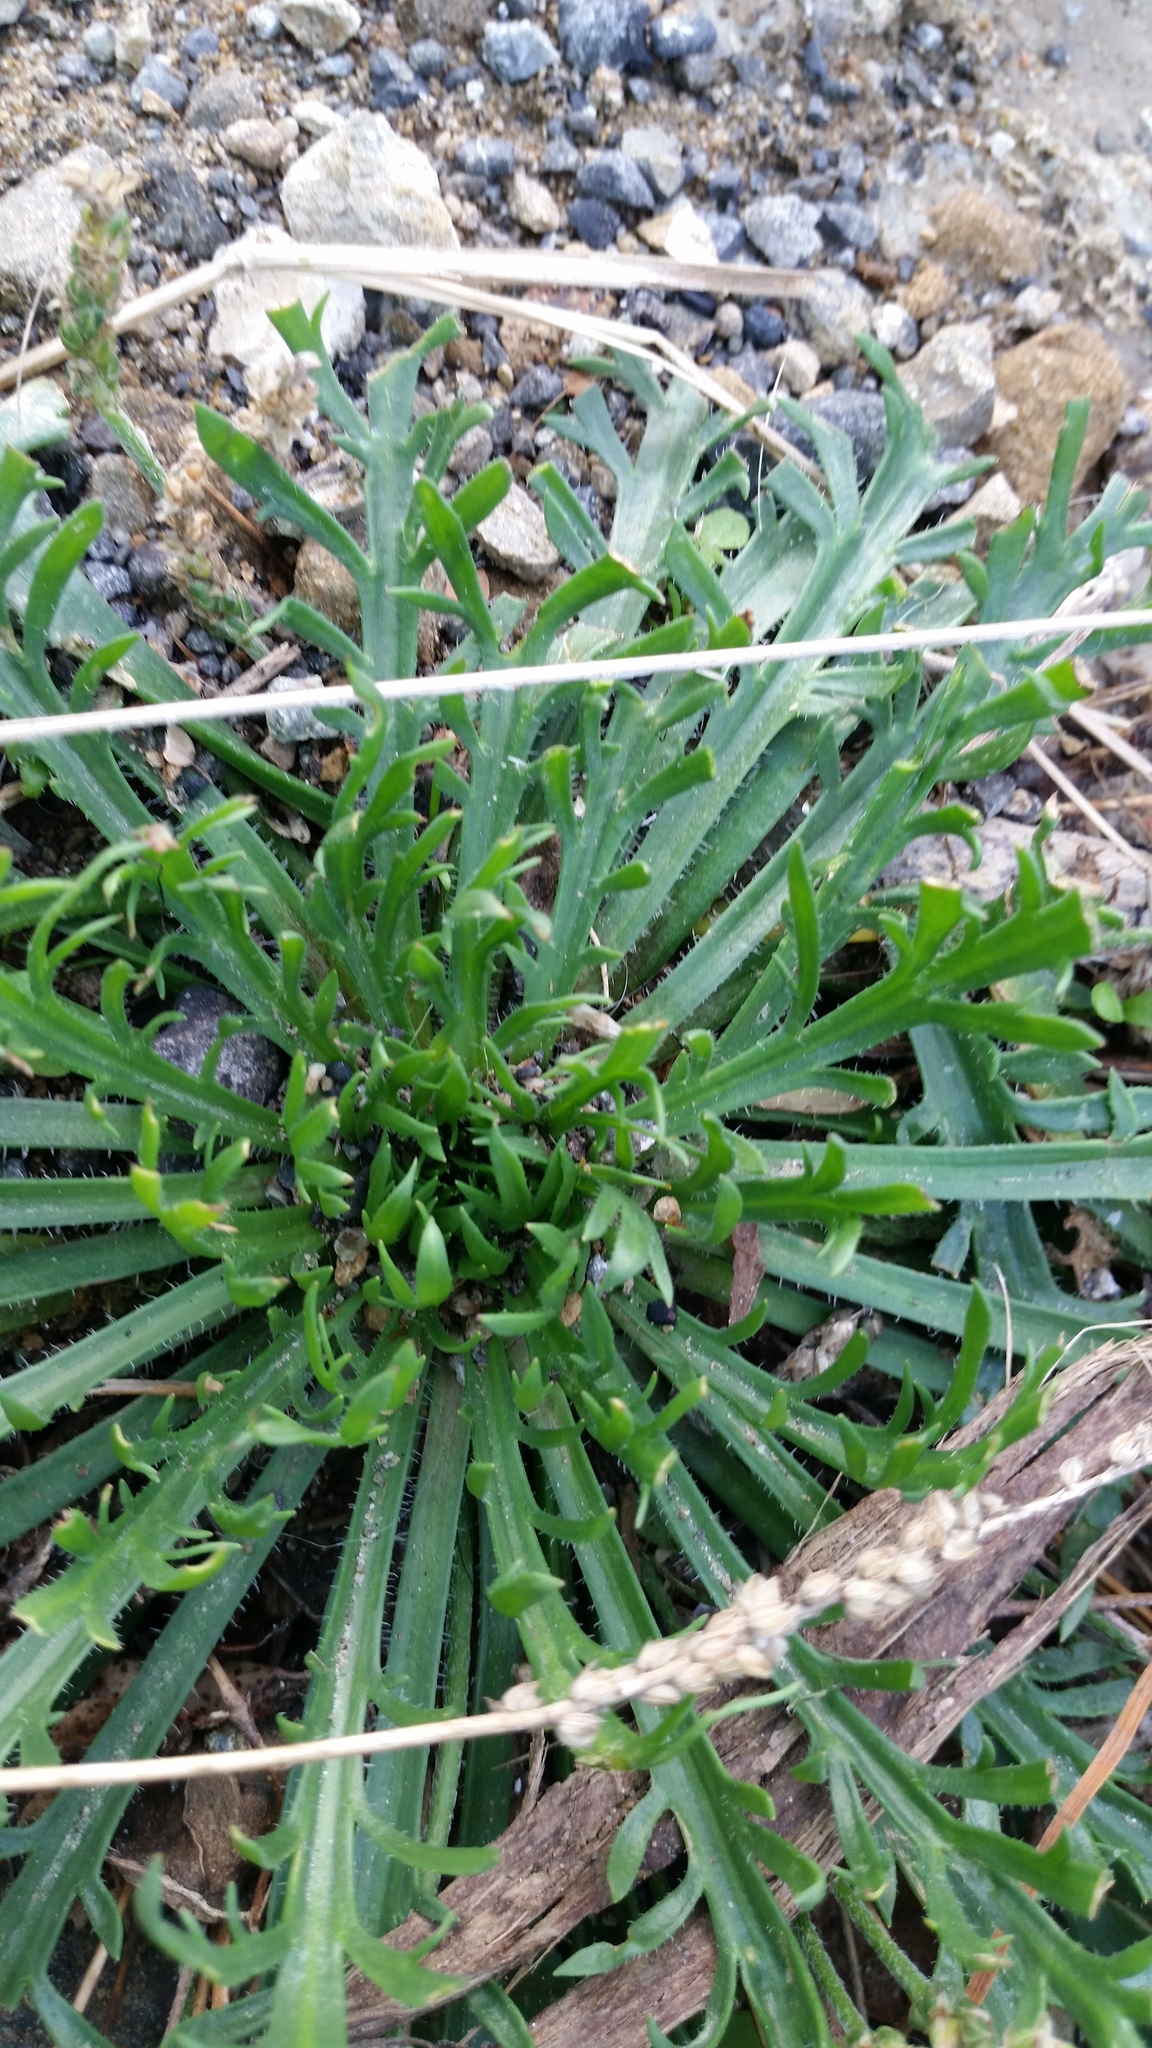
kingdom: Plantae
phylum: Tracheophyta
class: Magnoliopsida
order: Lamiales
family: Plantaginaceae
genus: Plantago
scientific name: Plantago coronopus
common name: Buck's-horn plantain
